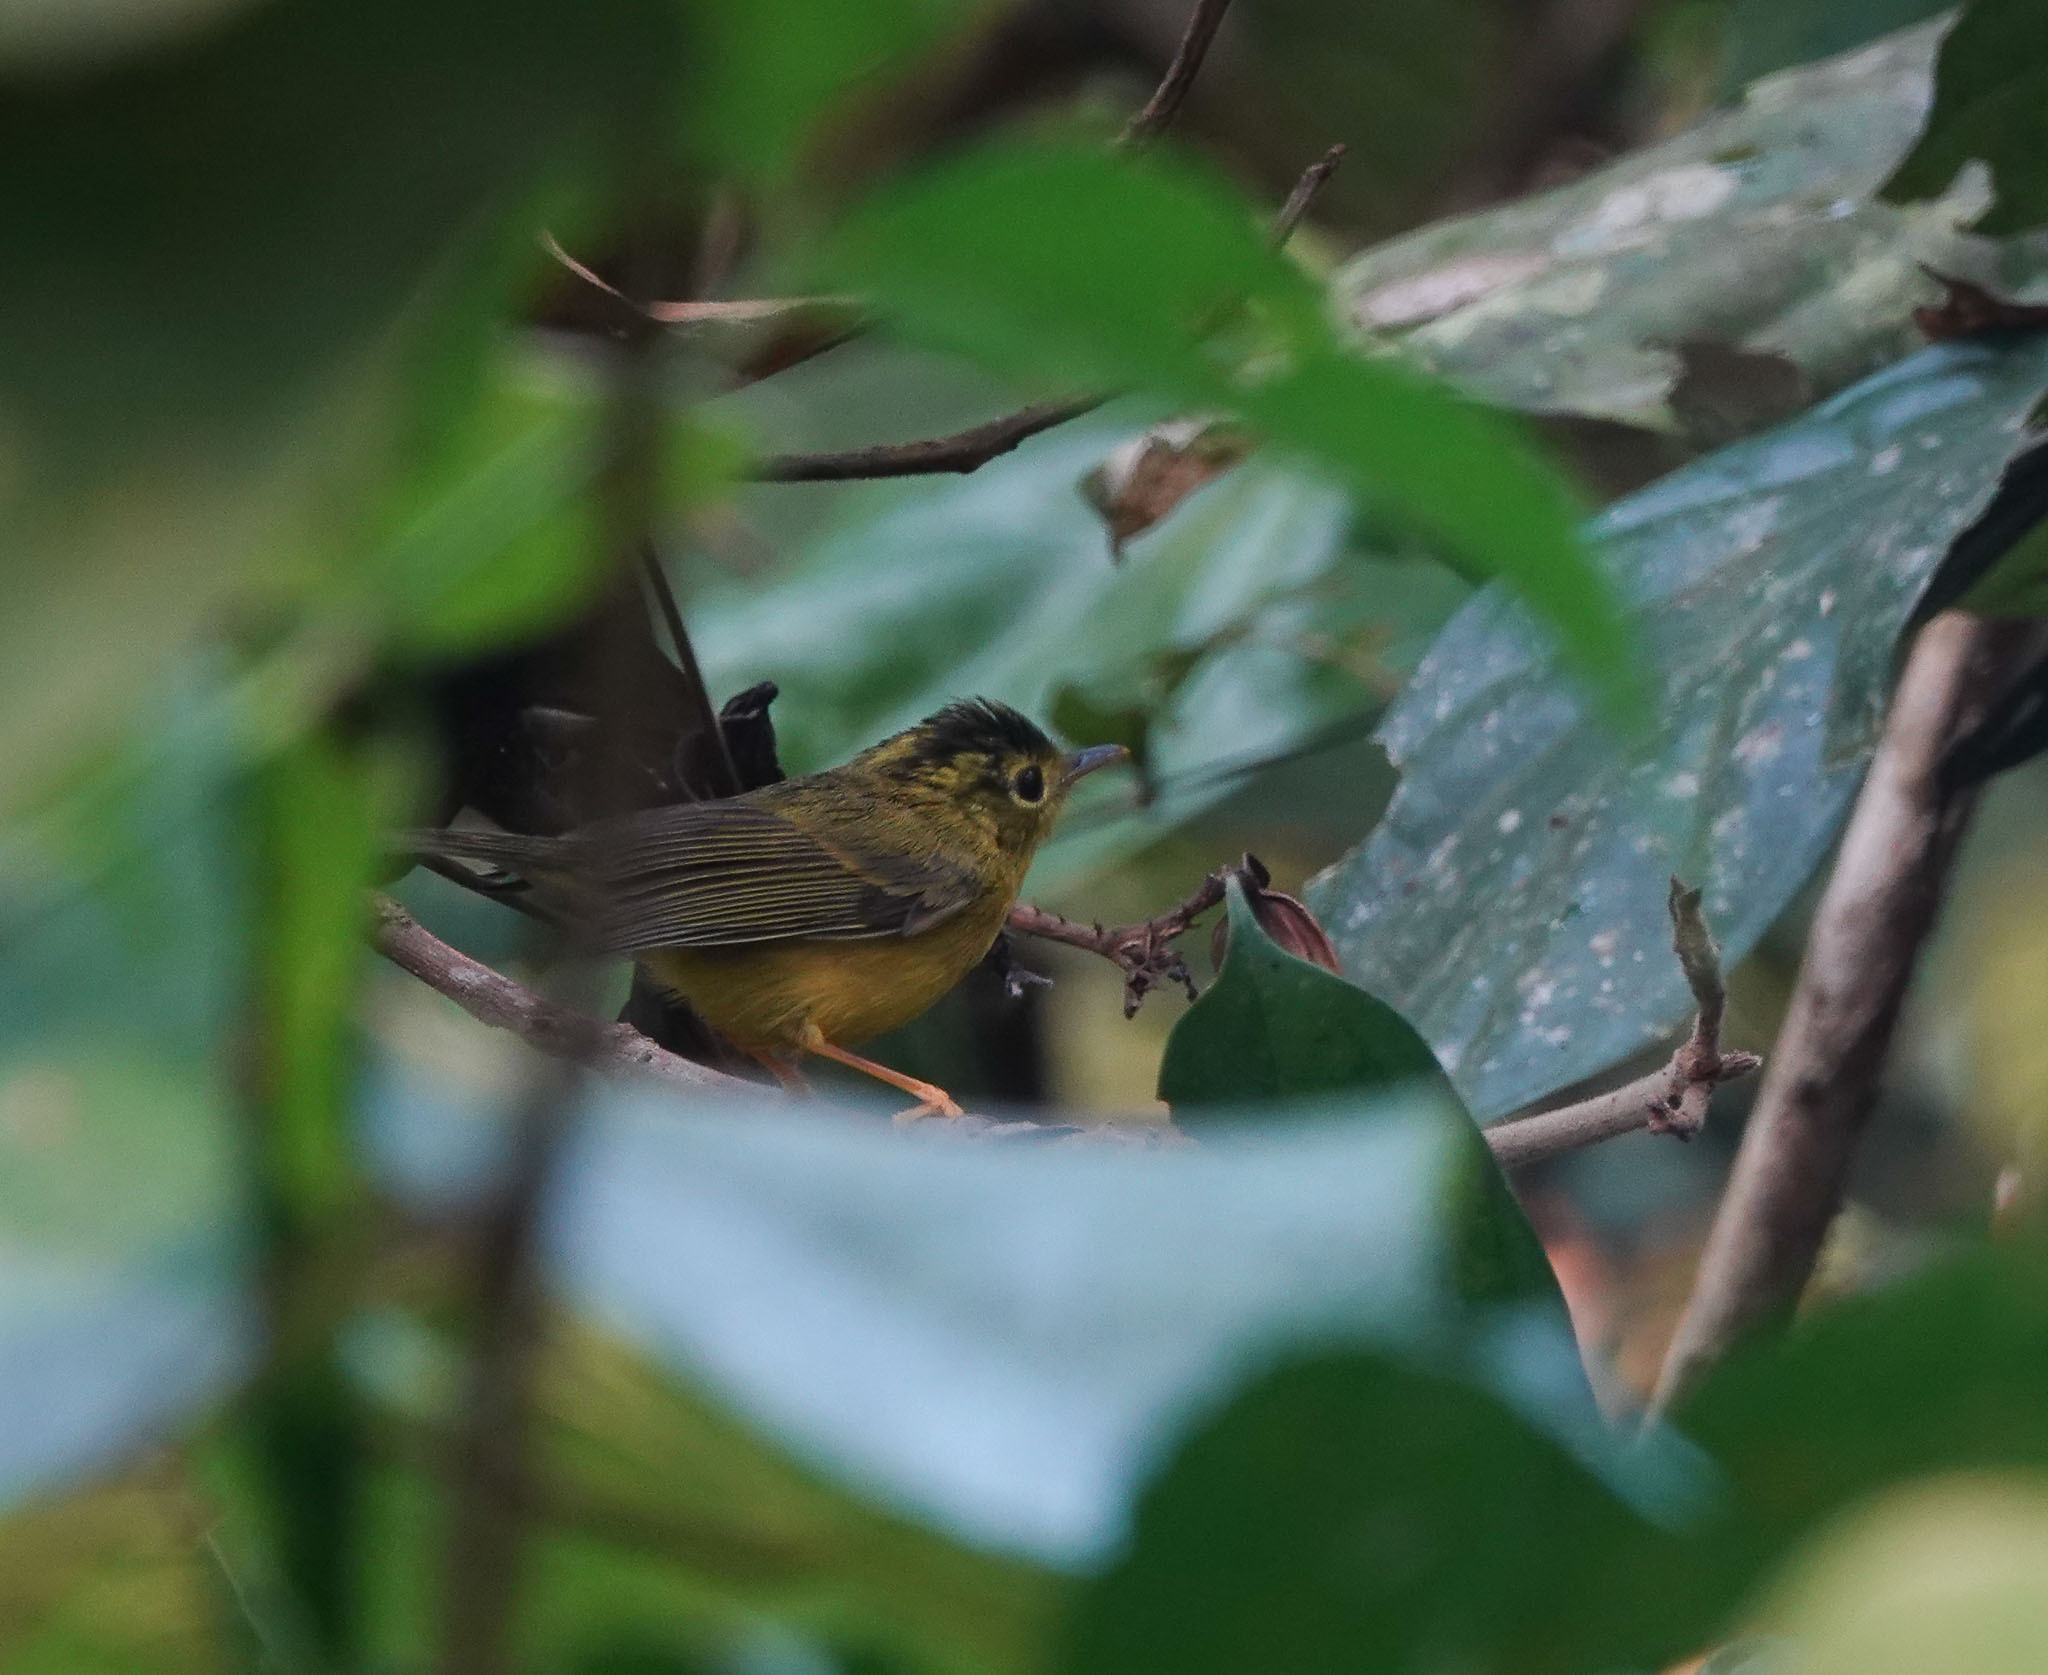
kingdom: Animalia
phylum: Chordata
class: Aves
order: Passeriformes
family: Phylloscopidae
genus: Seicercus
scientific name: Seicercus burkii
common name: Green-crowned warbler
